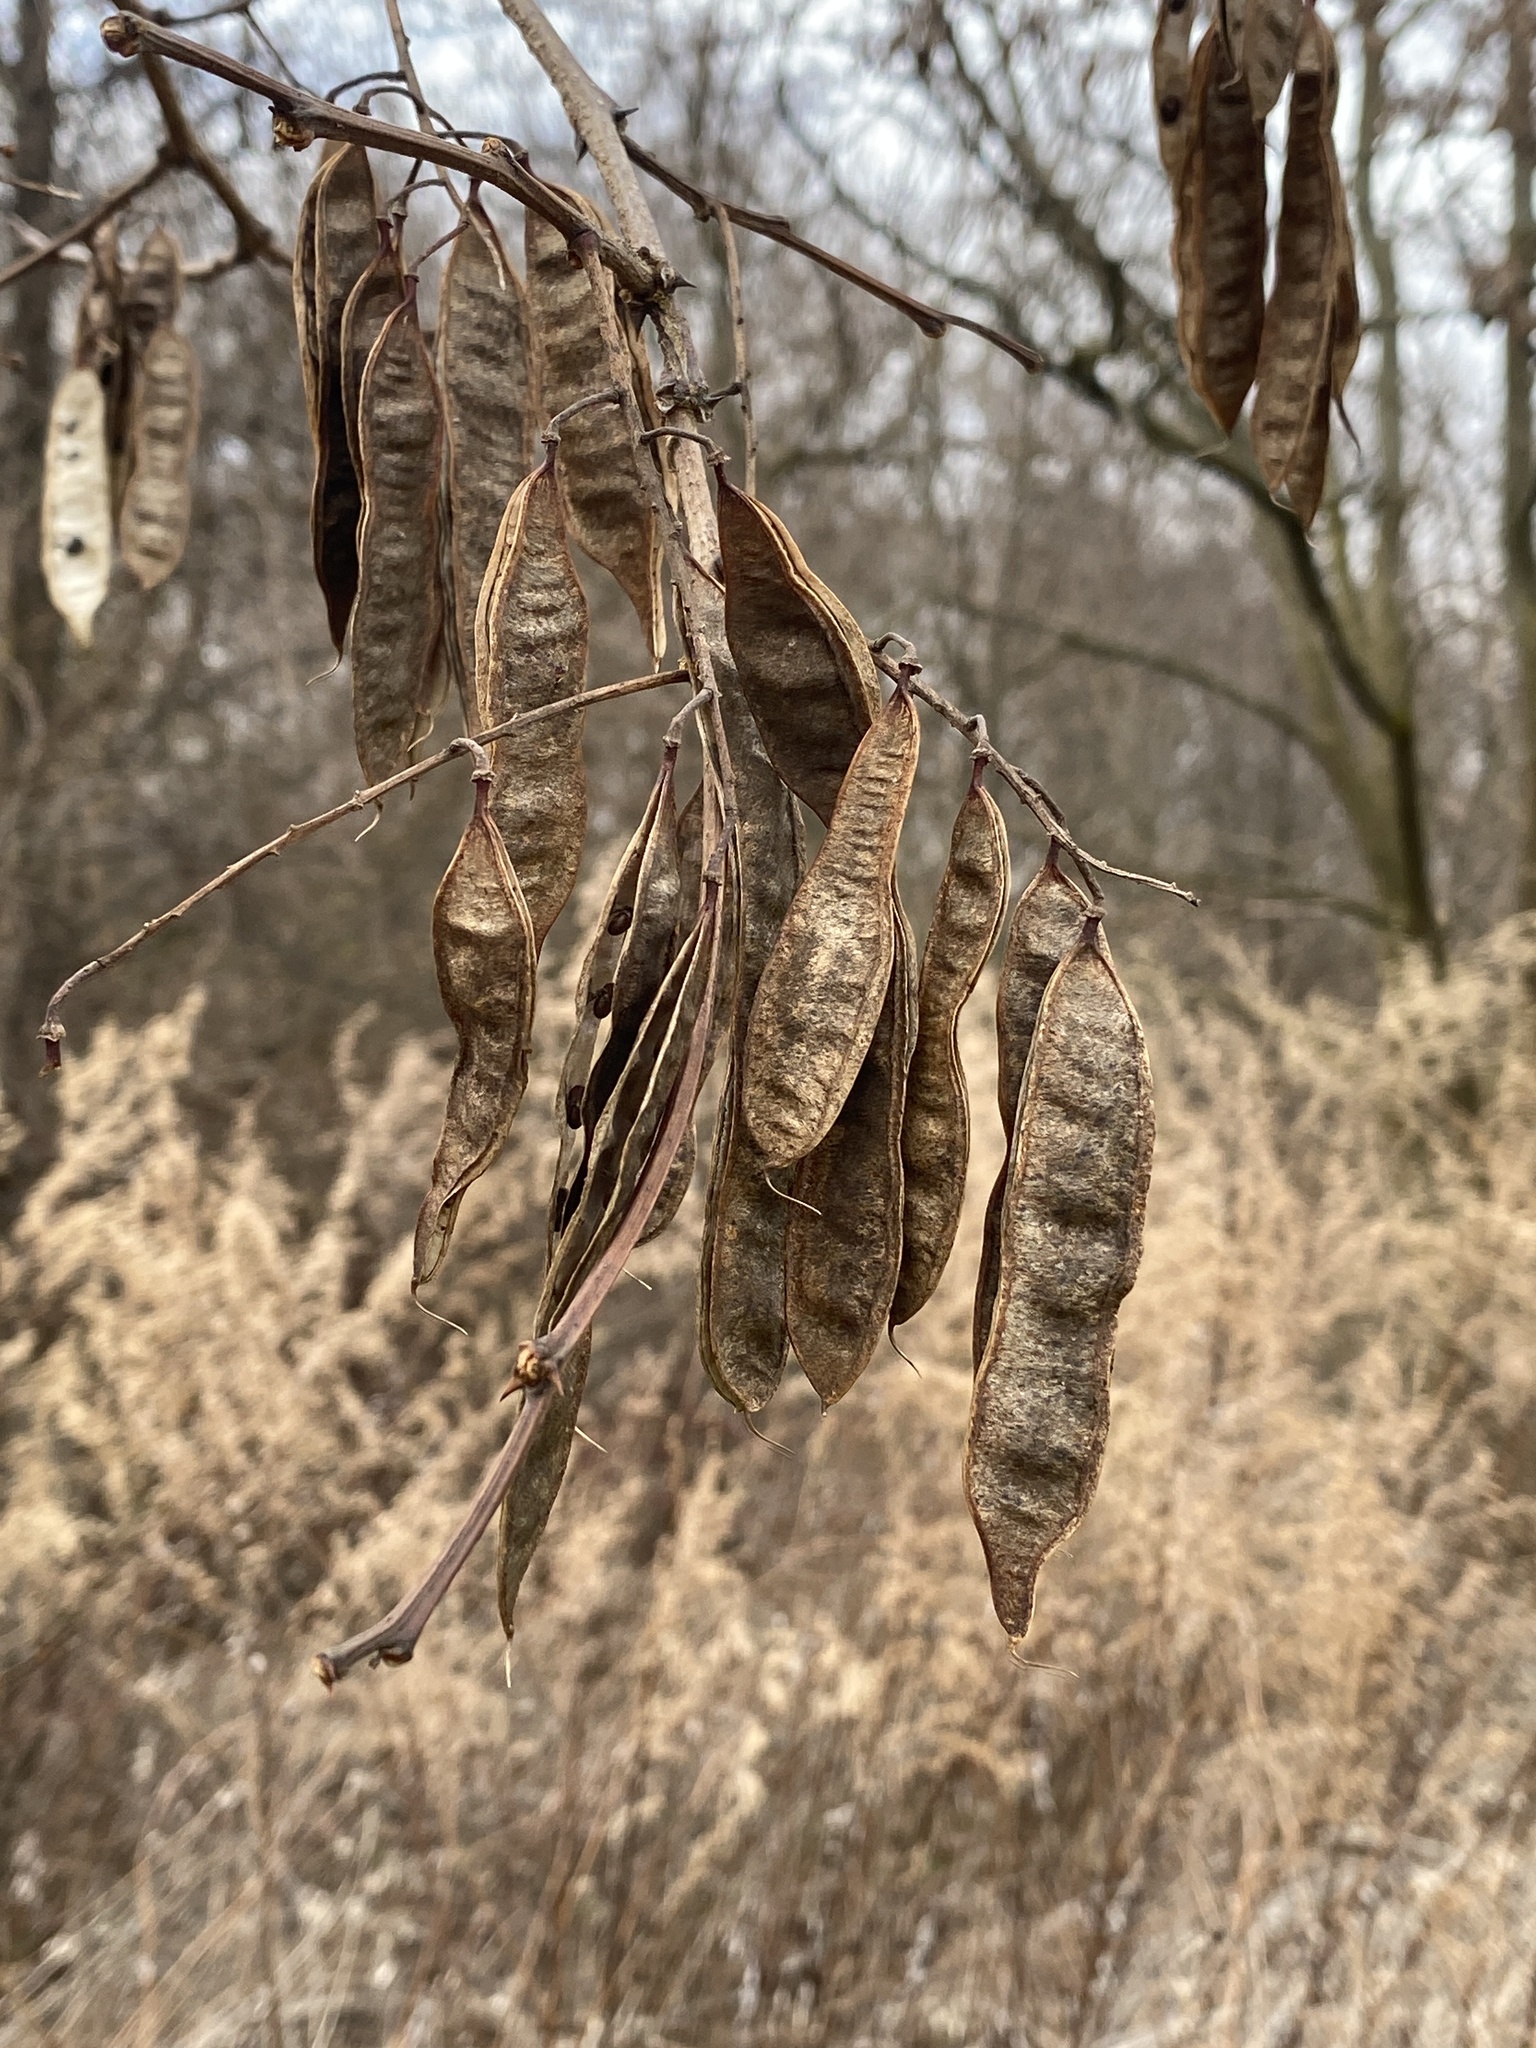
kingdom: Plantae
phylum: Tracheophyta
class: Magnoliopsida
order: Fabales
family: Fabaceae
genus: Robinia
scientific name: Robinia pseudoacacia
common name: Black locust
